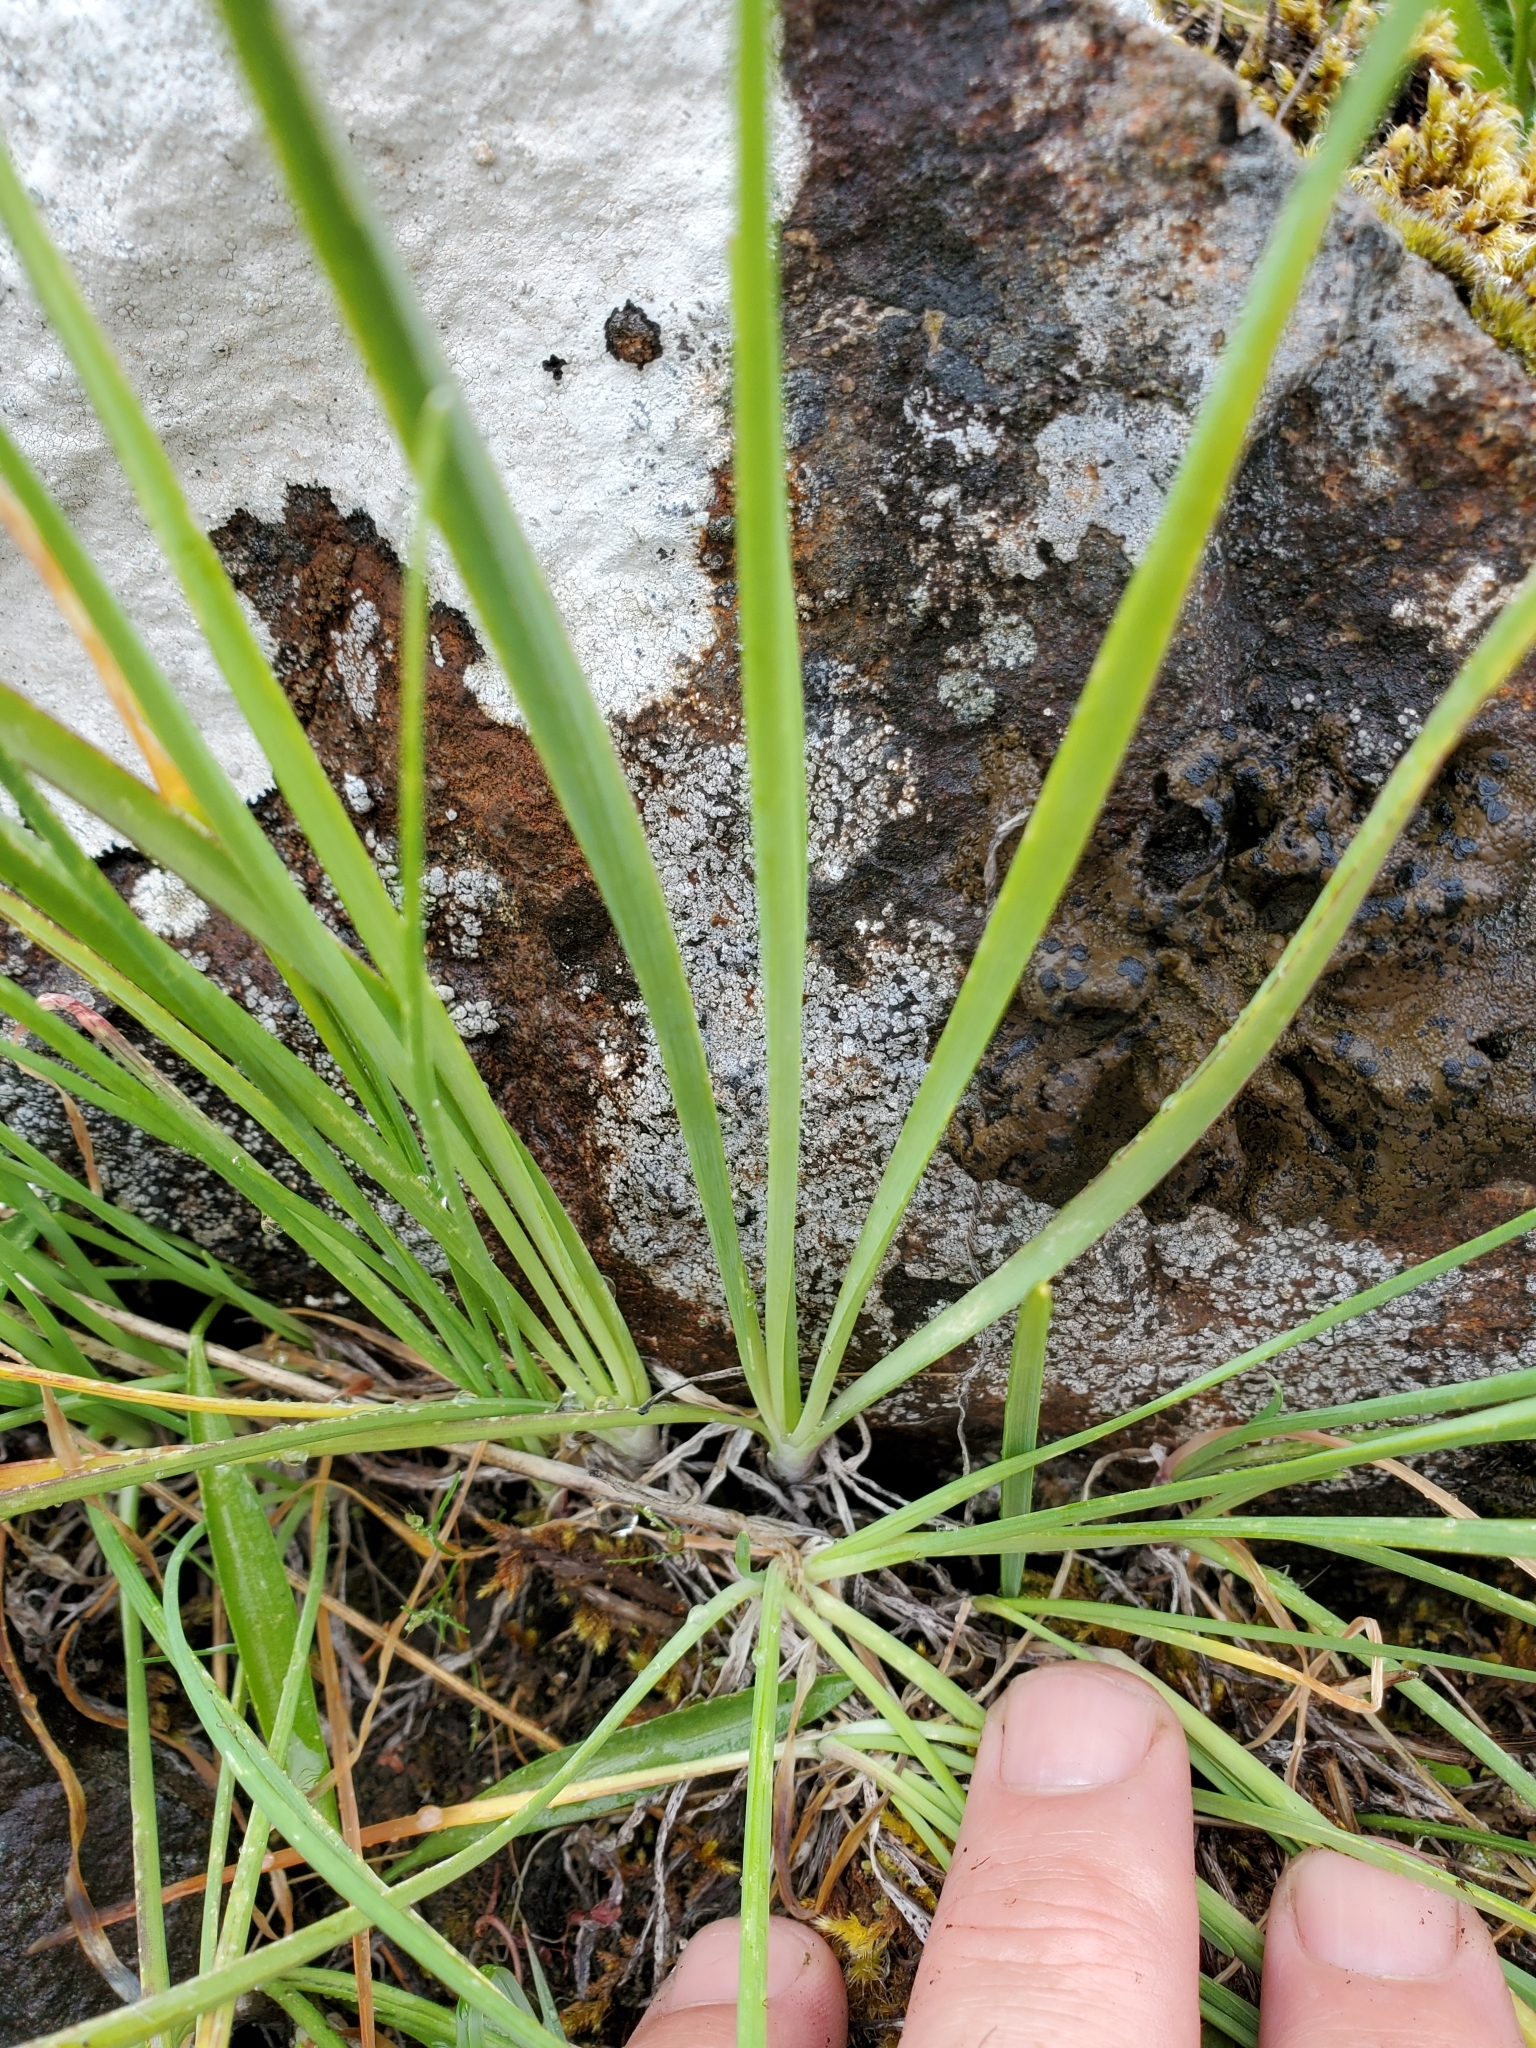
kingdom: Plantae
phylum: Tracheophyta
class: Liliopsida
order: Asparagales
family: Amaryllidaceae
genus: Allium
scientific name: Allium cernuum
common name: Nodding onion
